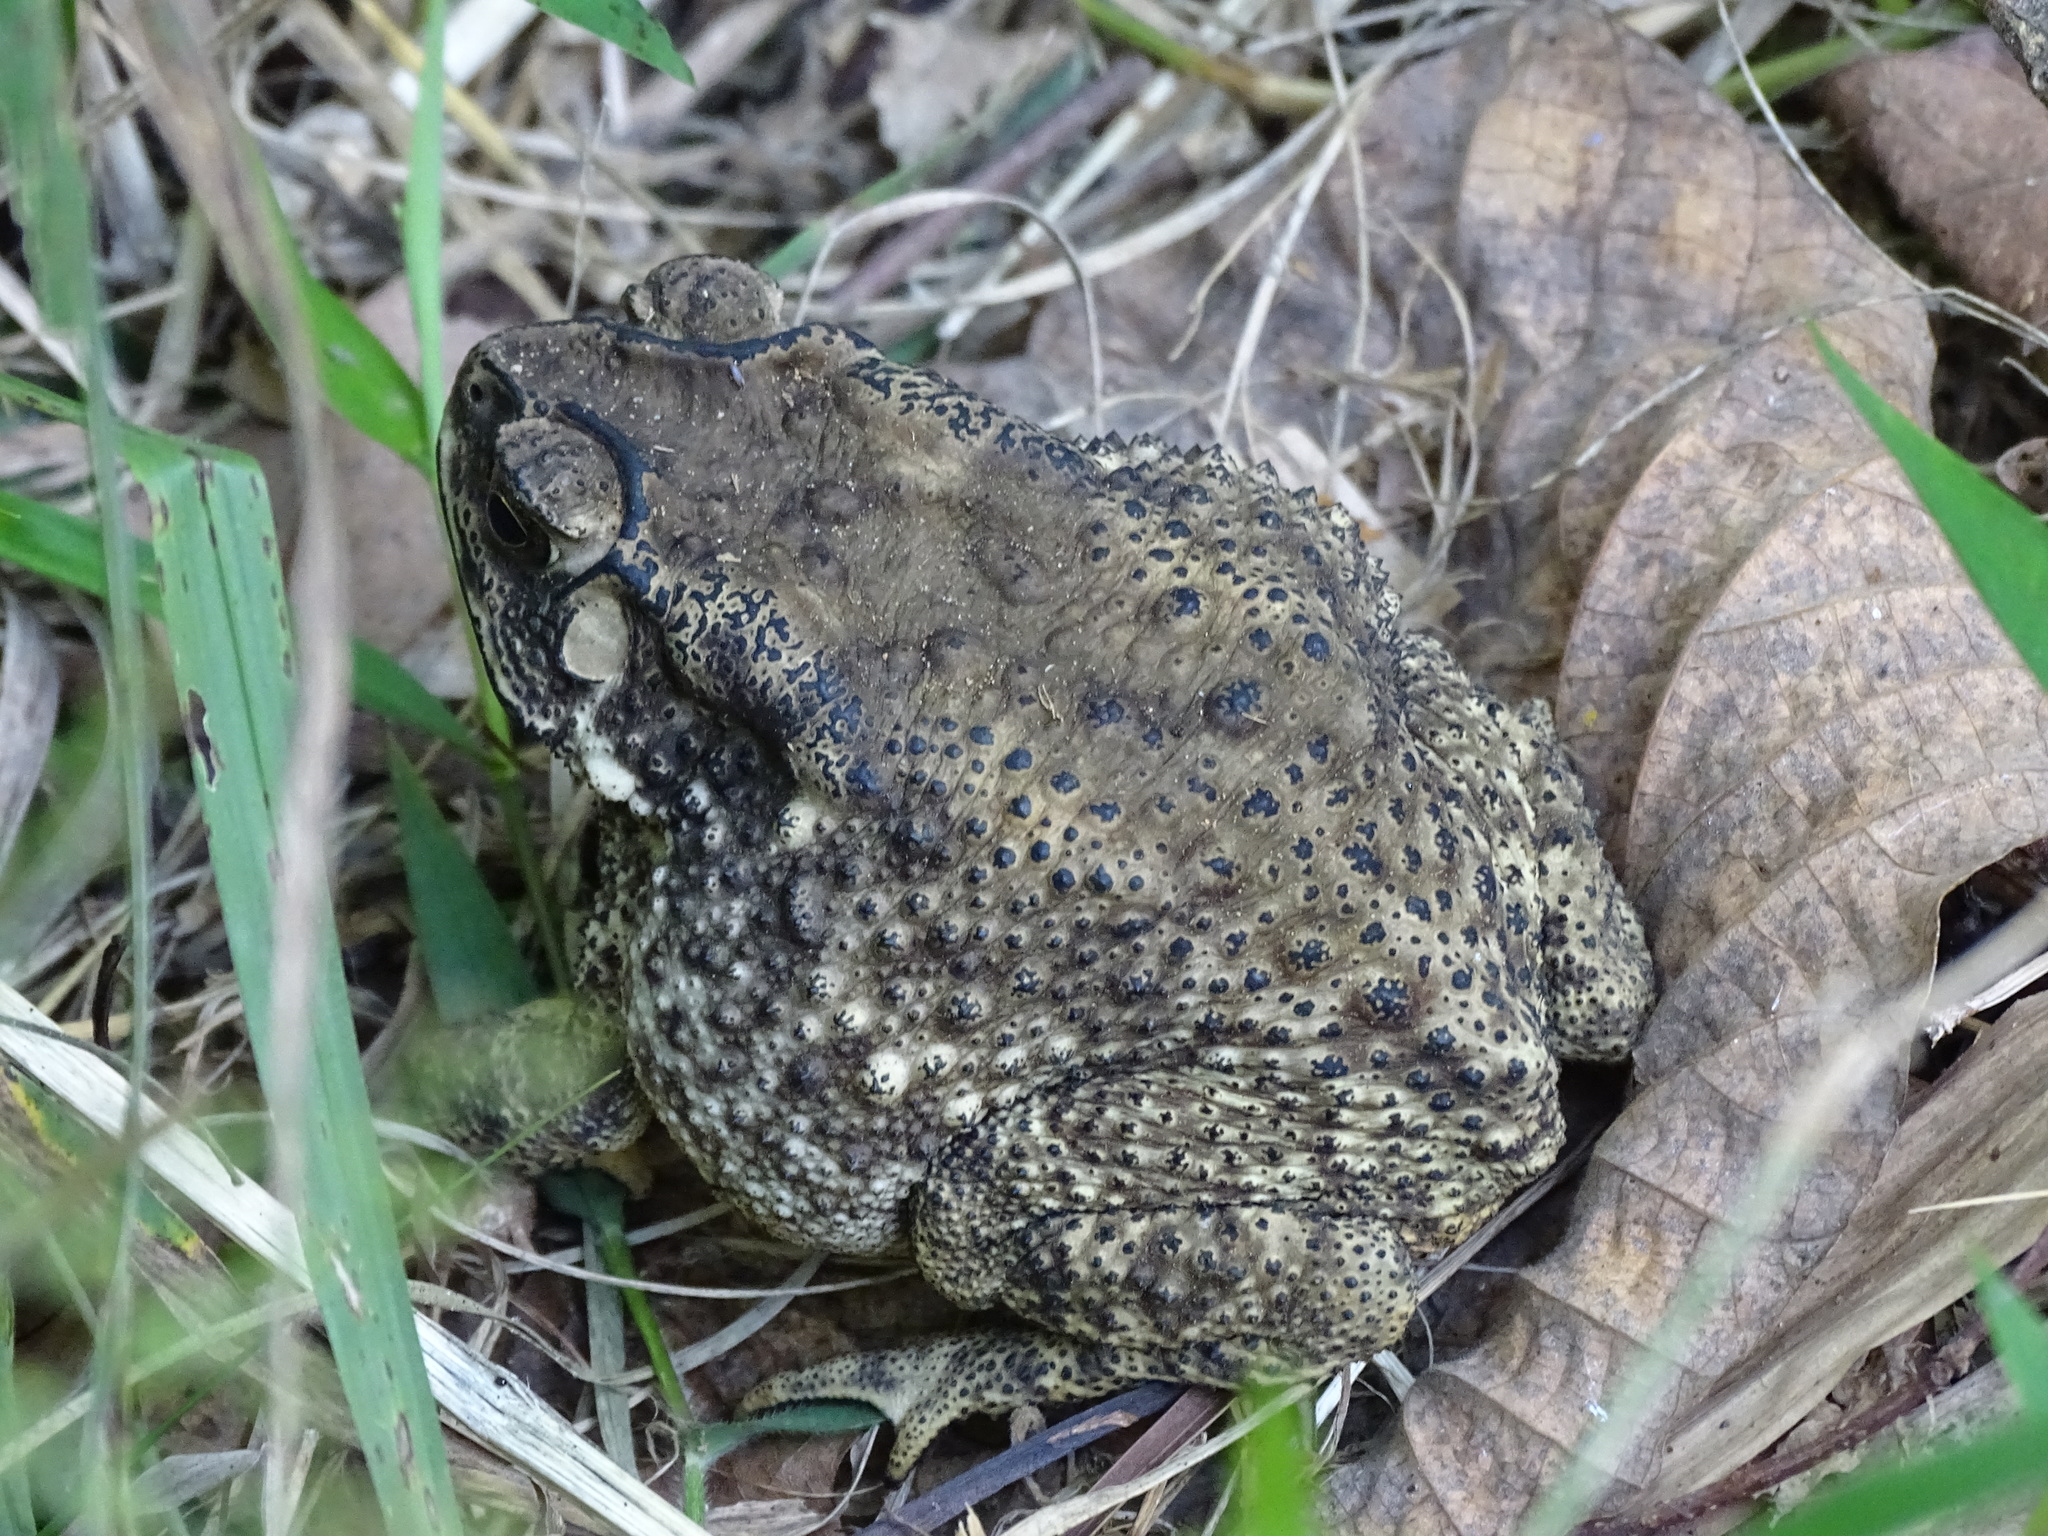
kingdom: Animalia
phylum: Chordata
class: Amphibia
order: Anura
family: Bufonidae
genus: Duttaphrynus
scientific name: Duttaphrynus melanostictus
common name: Common sunda toad
